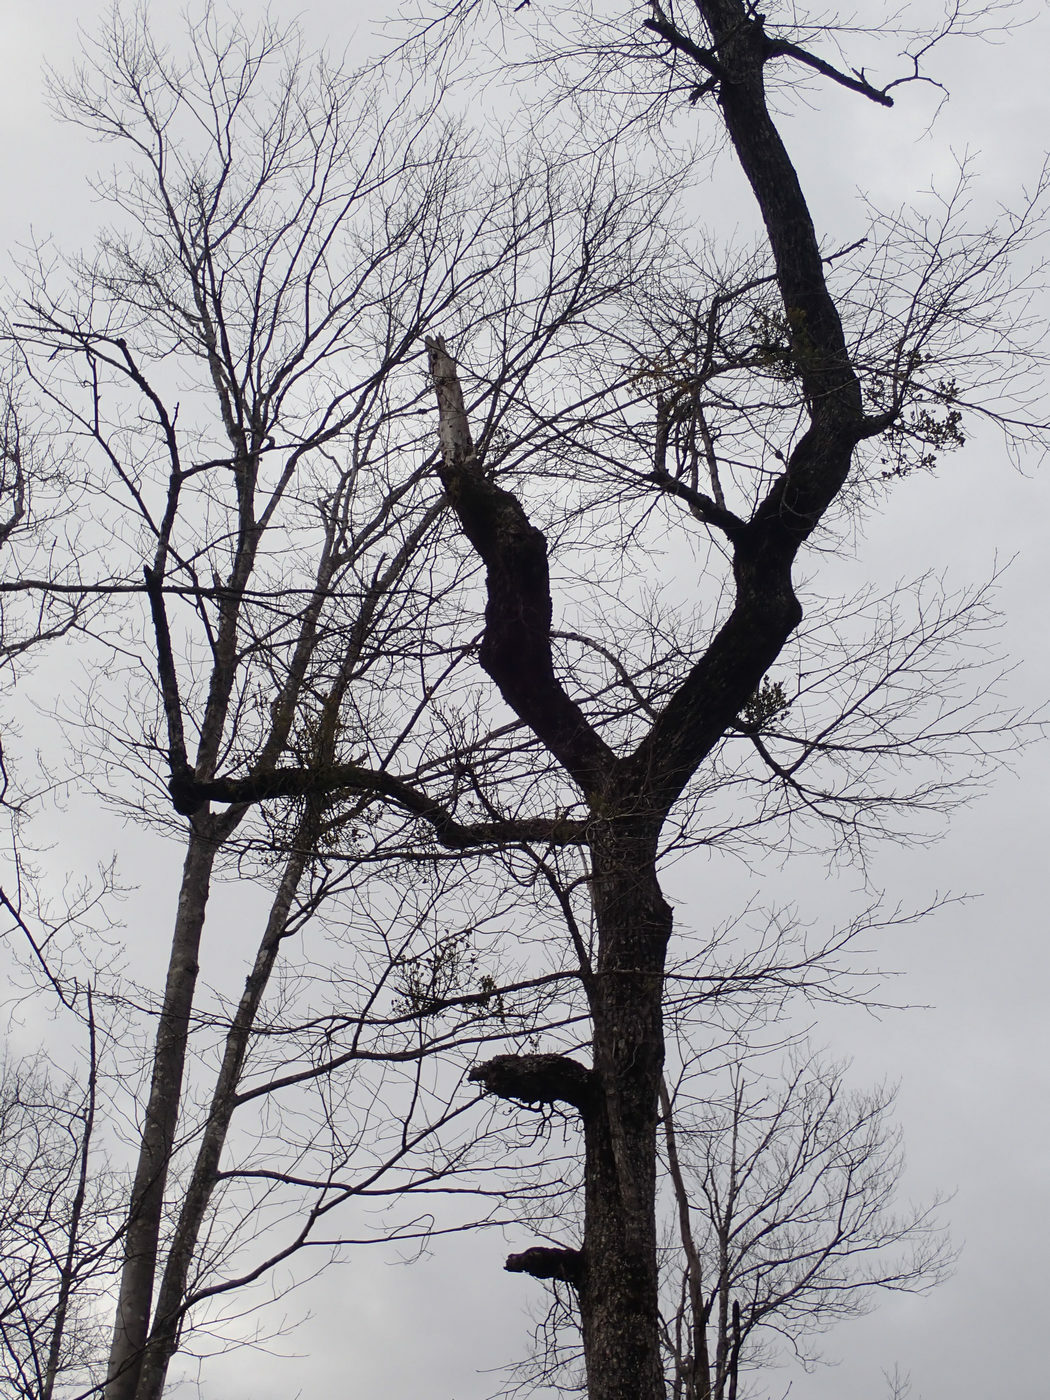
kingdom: Plantae
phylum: Tracheophyta
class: Magnoliopsida
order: Santalales
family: Viscaceae
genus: Phoradendron
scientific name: Phoradendron leucarpum
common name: Pacific mistletoe
